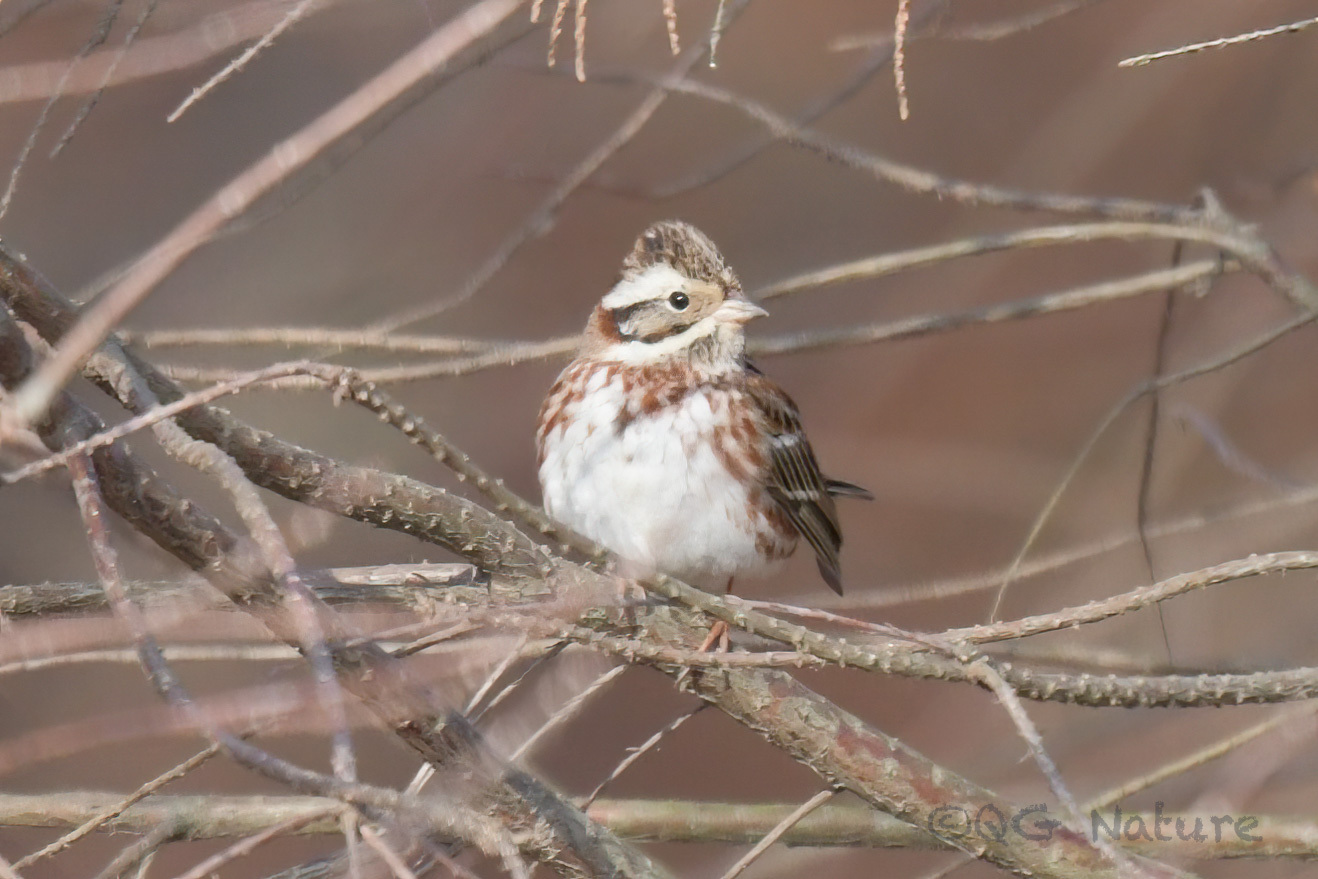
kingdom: Animalia
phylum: Chordata
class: Aves
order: Passeriformes
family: Emberizidae
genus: Emberiza
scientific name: Emberiza rustica
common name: Rustic bunting
